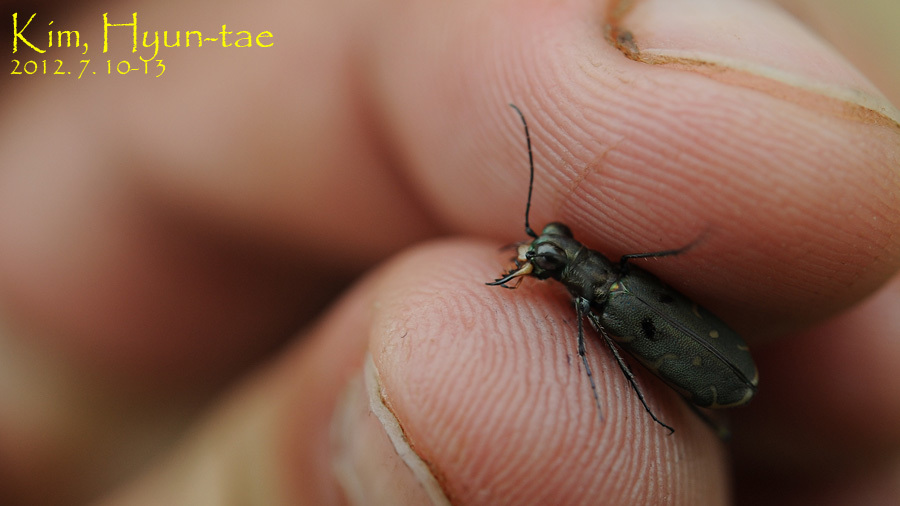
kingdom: Animalia
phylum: Arthropoda
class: Insecta
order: Coleoptera
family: Carabidae
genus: Myriochila
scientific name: Myriochila specularis
